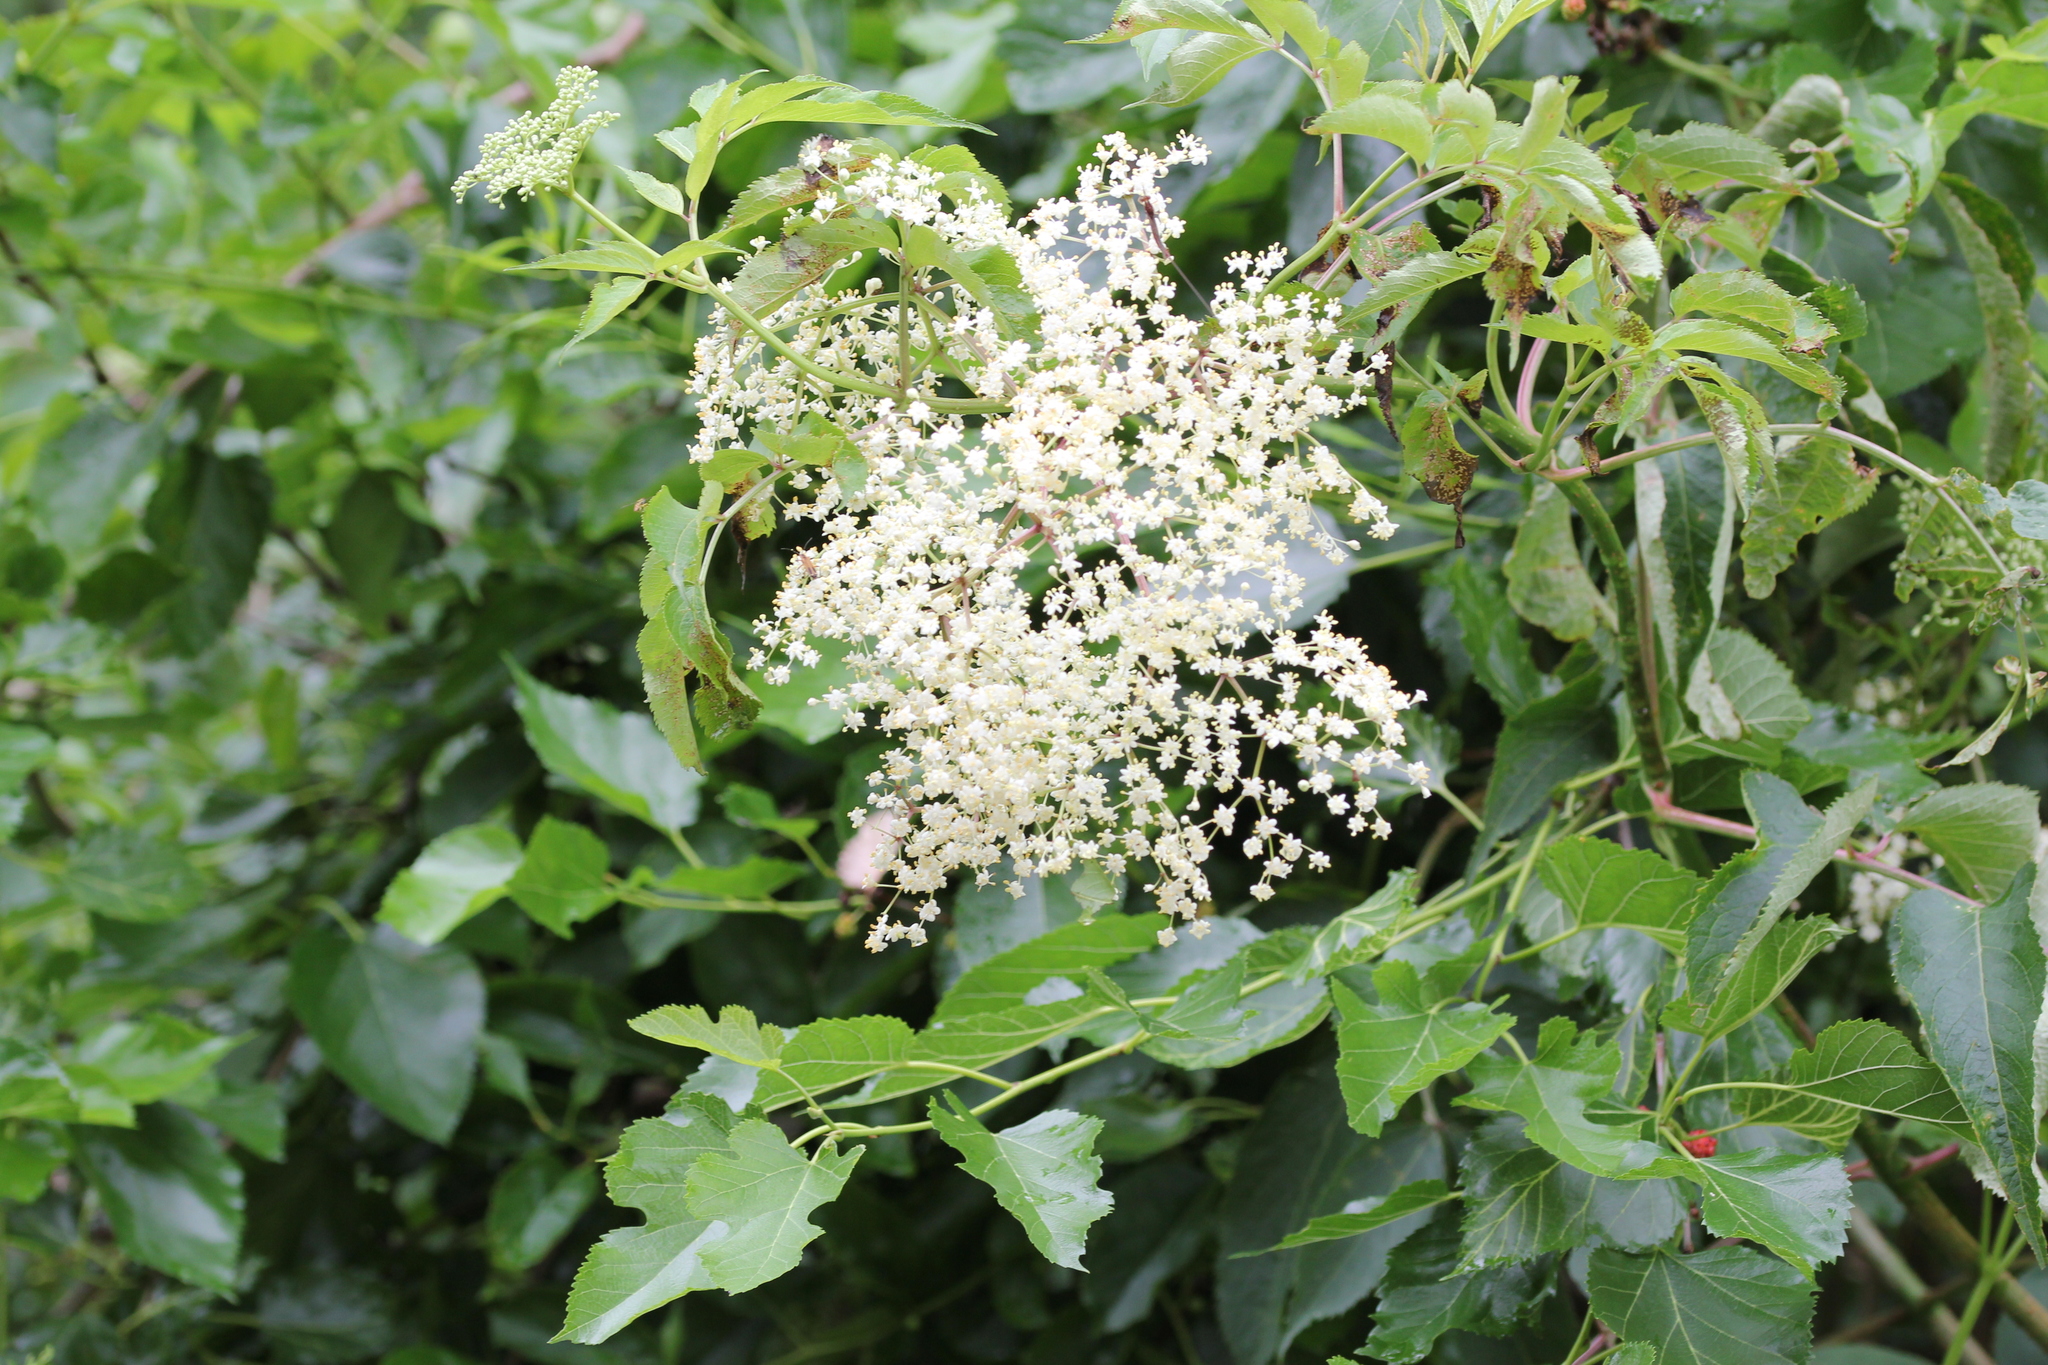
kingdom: Plantae
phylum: Tracheophyta
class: Magnoliopsida
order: Dipsacales
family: Viburnaceae
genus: Sambucus
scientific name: Sambucus canadensis
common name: American elder
